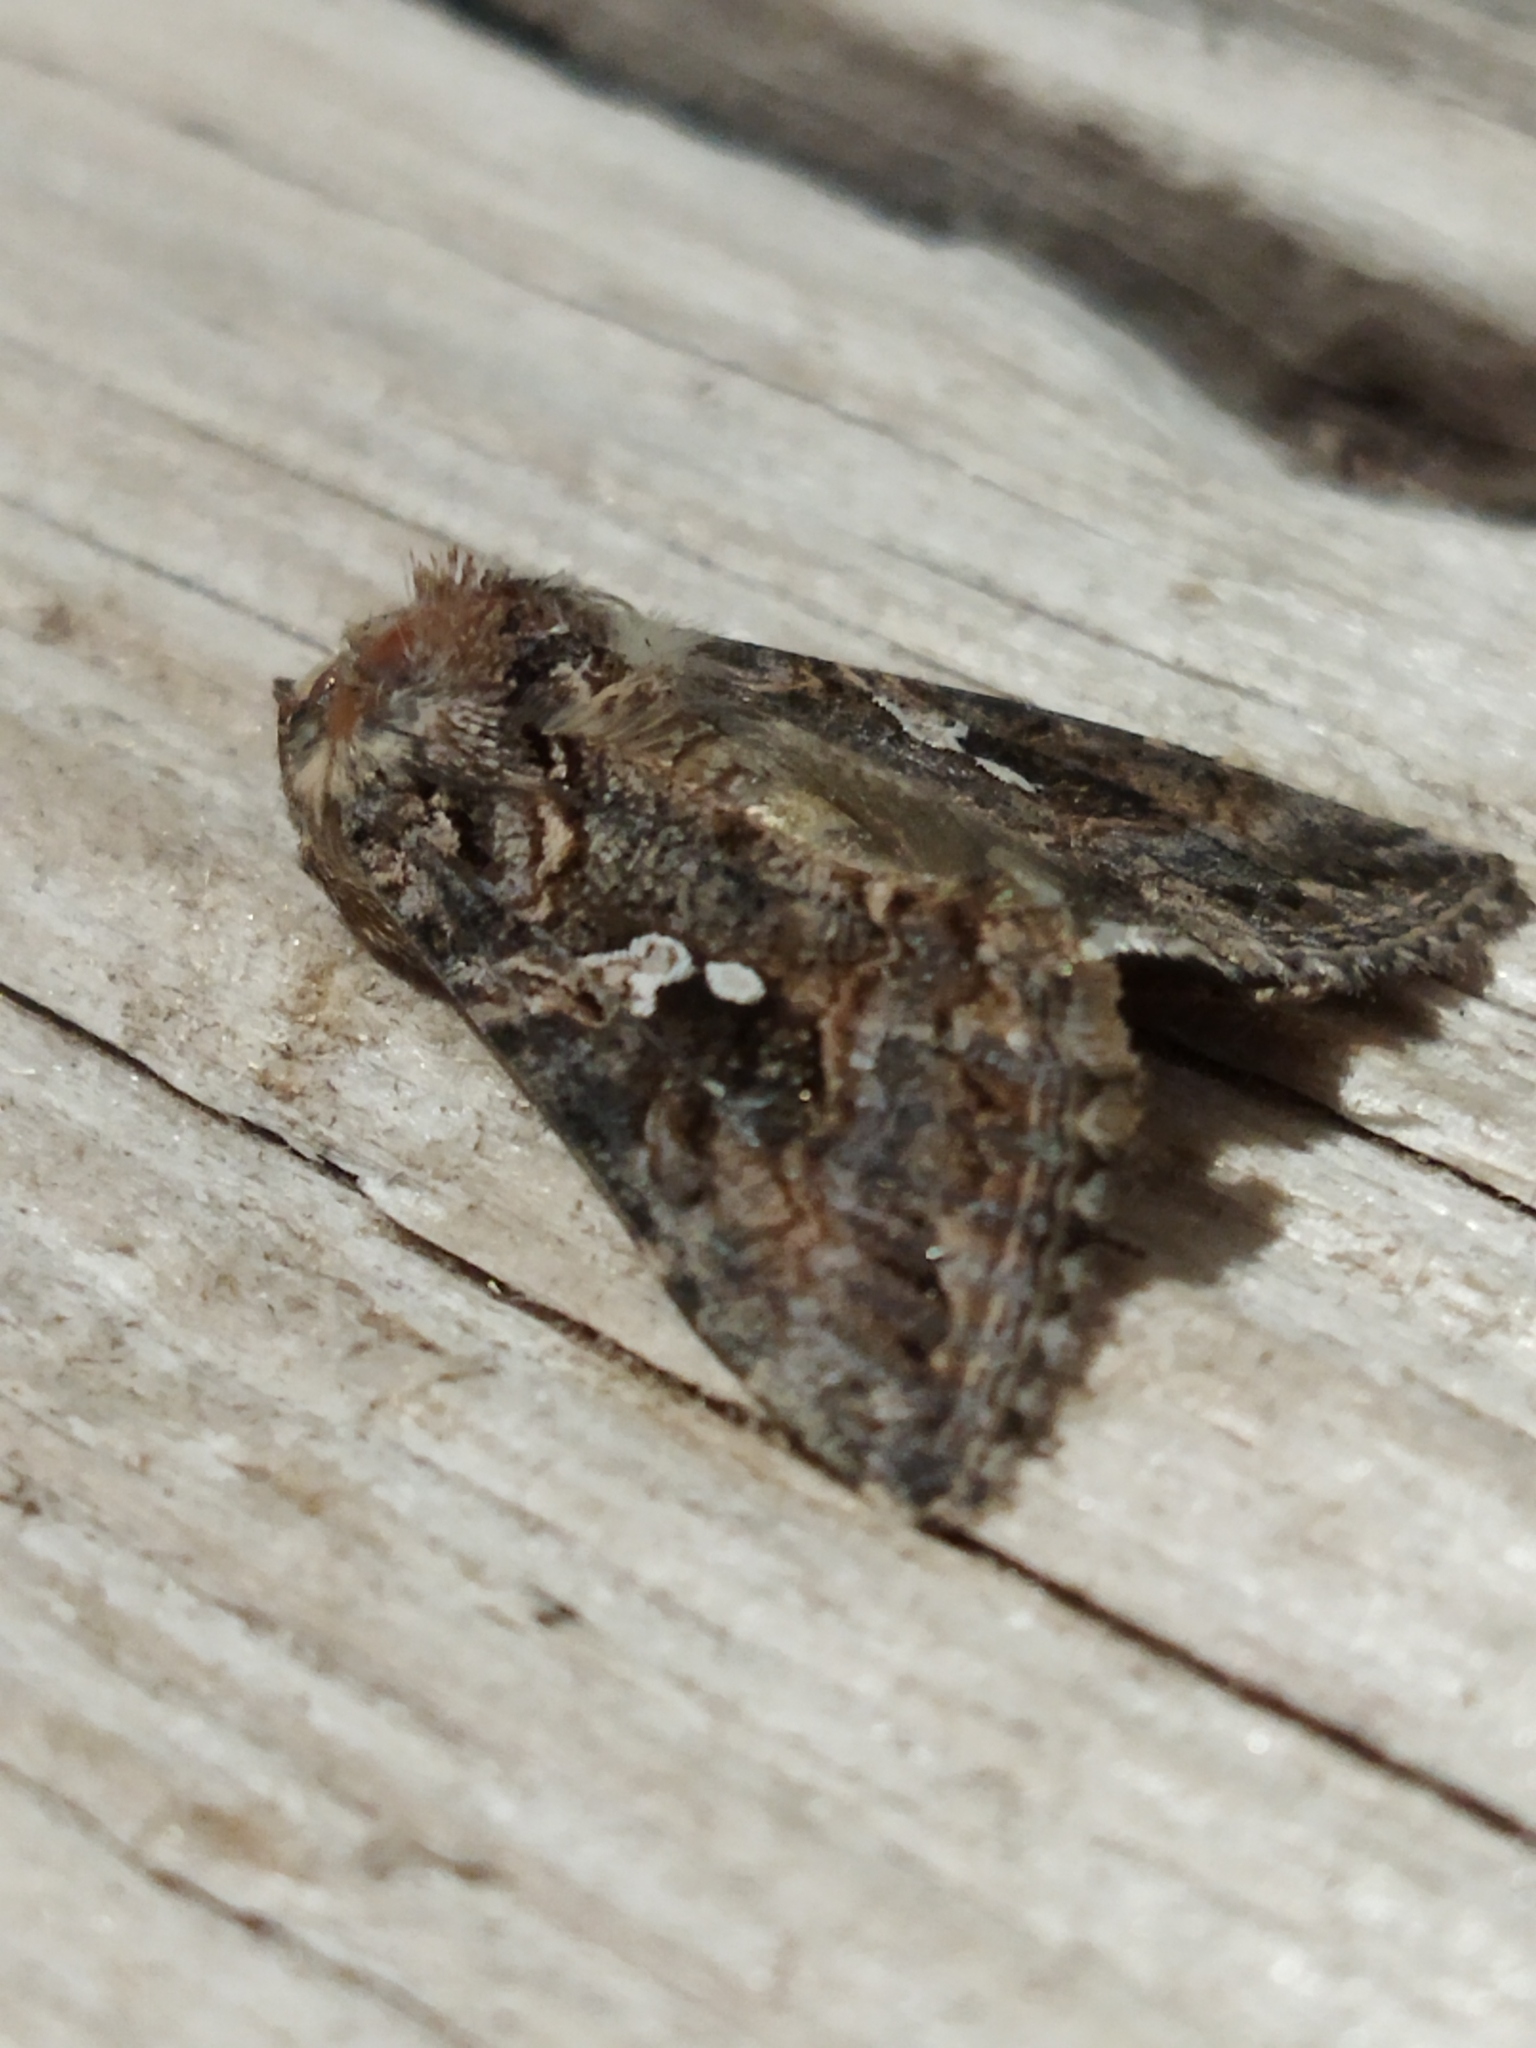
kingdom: Animalia
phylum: Arthropoda
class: Insecta
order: Lepidoptera
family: Noctuidae
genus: Trichoplusia
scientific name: Trichoplusia ni
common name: Ni moth
